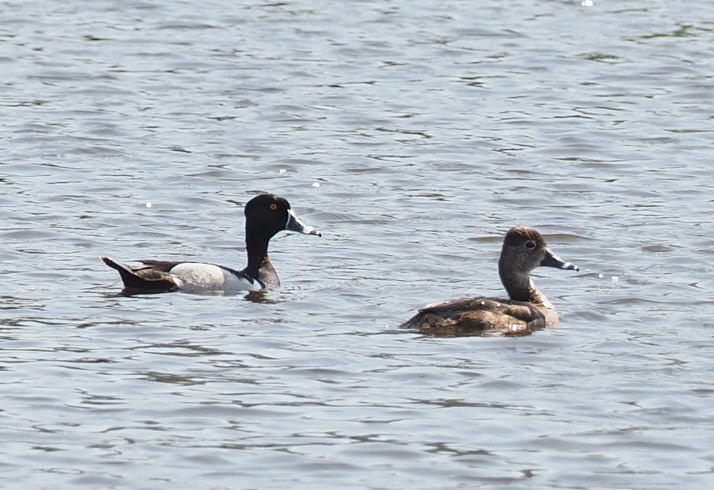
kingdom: Animalia
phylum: Chordata
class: Aves
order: Anseriformes
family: Anatidae
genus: Aythya
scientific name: Aythya collaris
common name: Ring-necked duck
